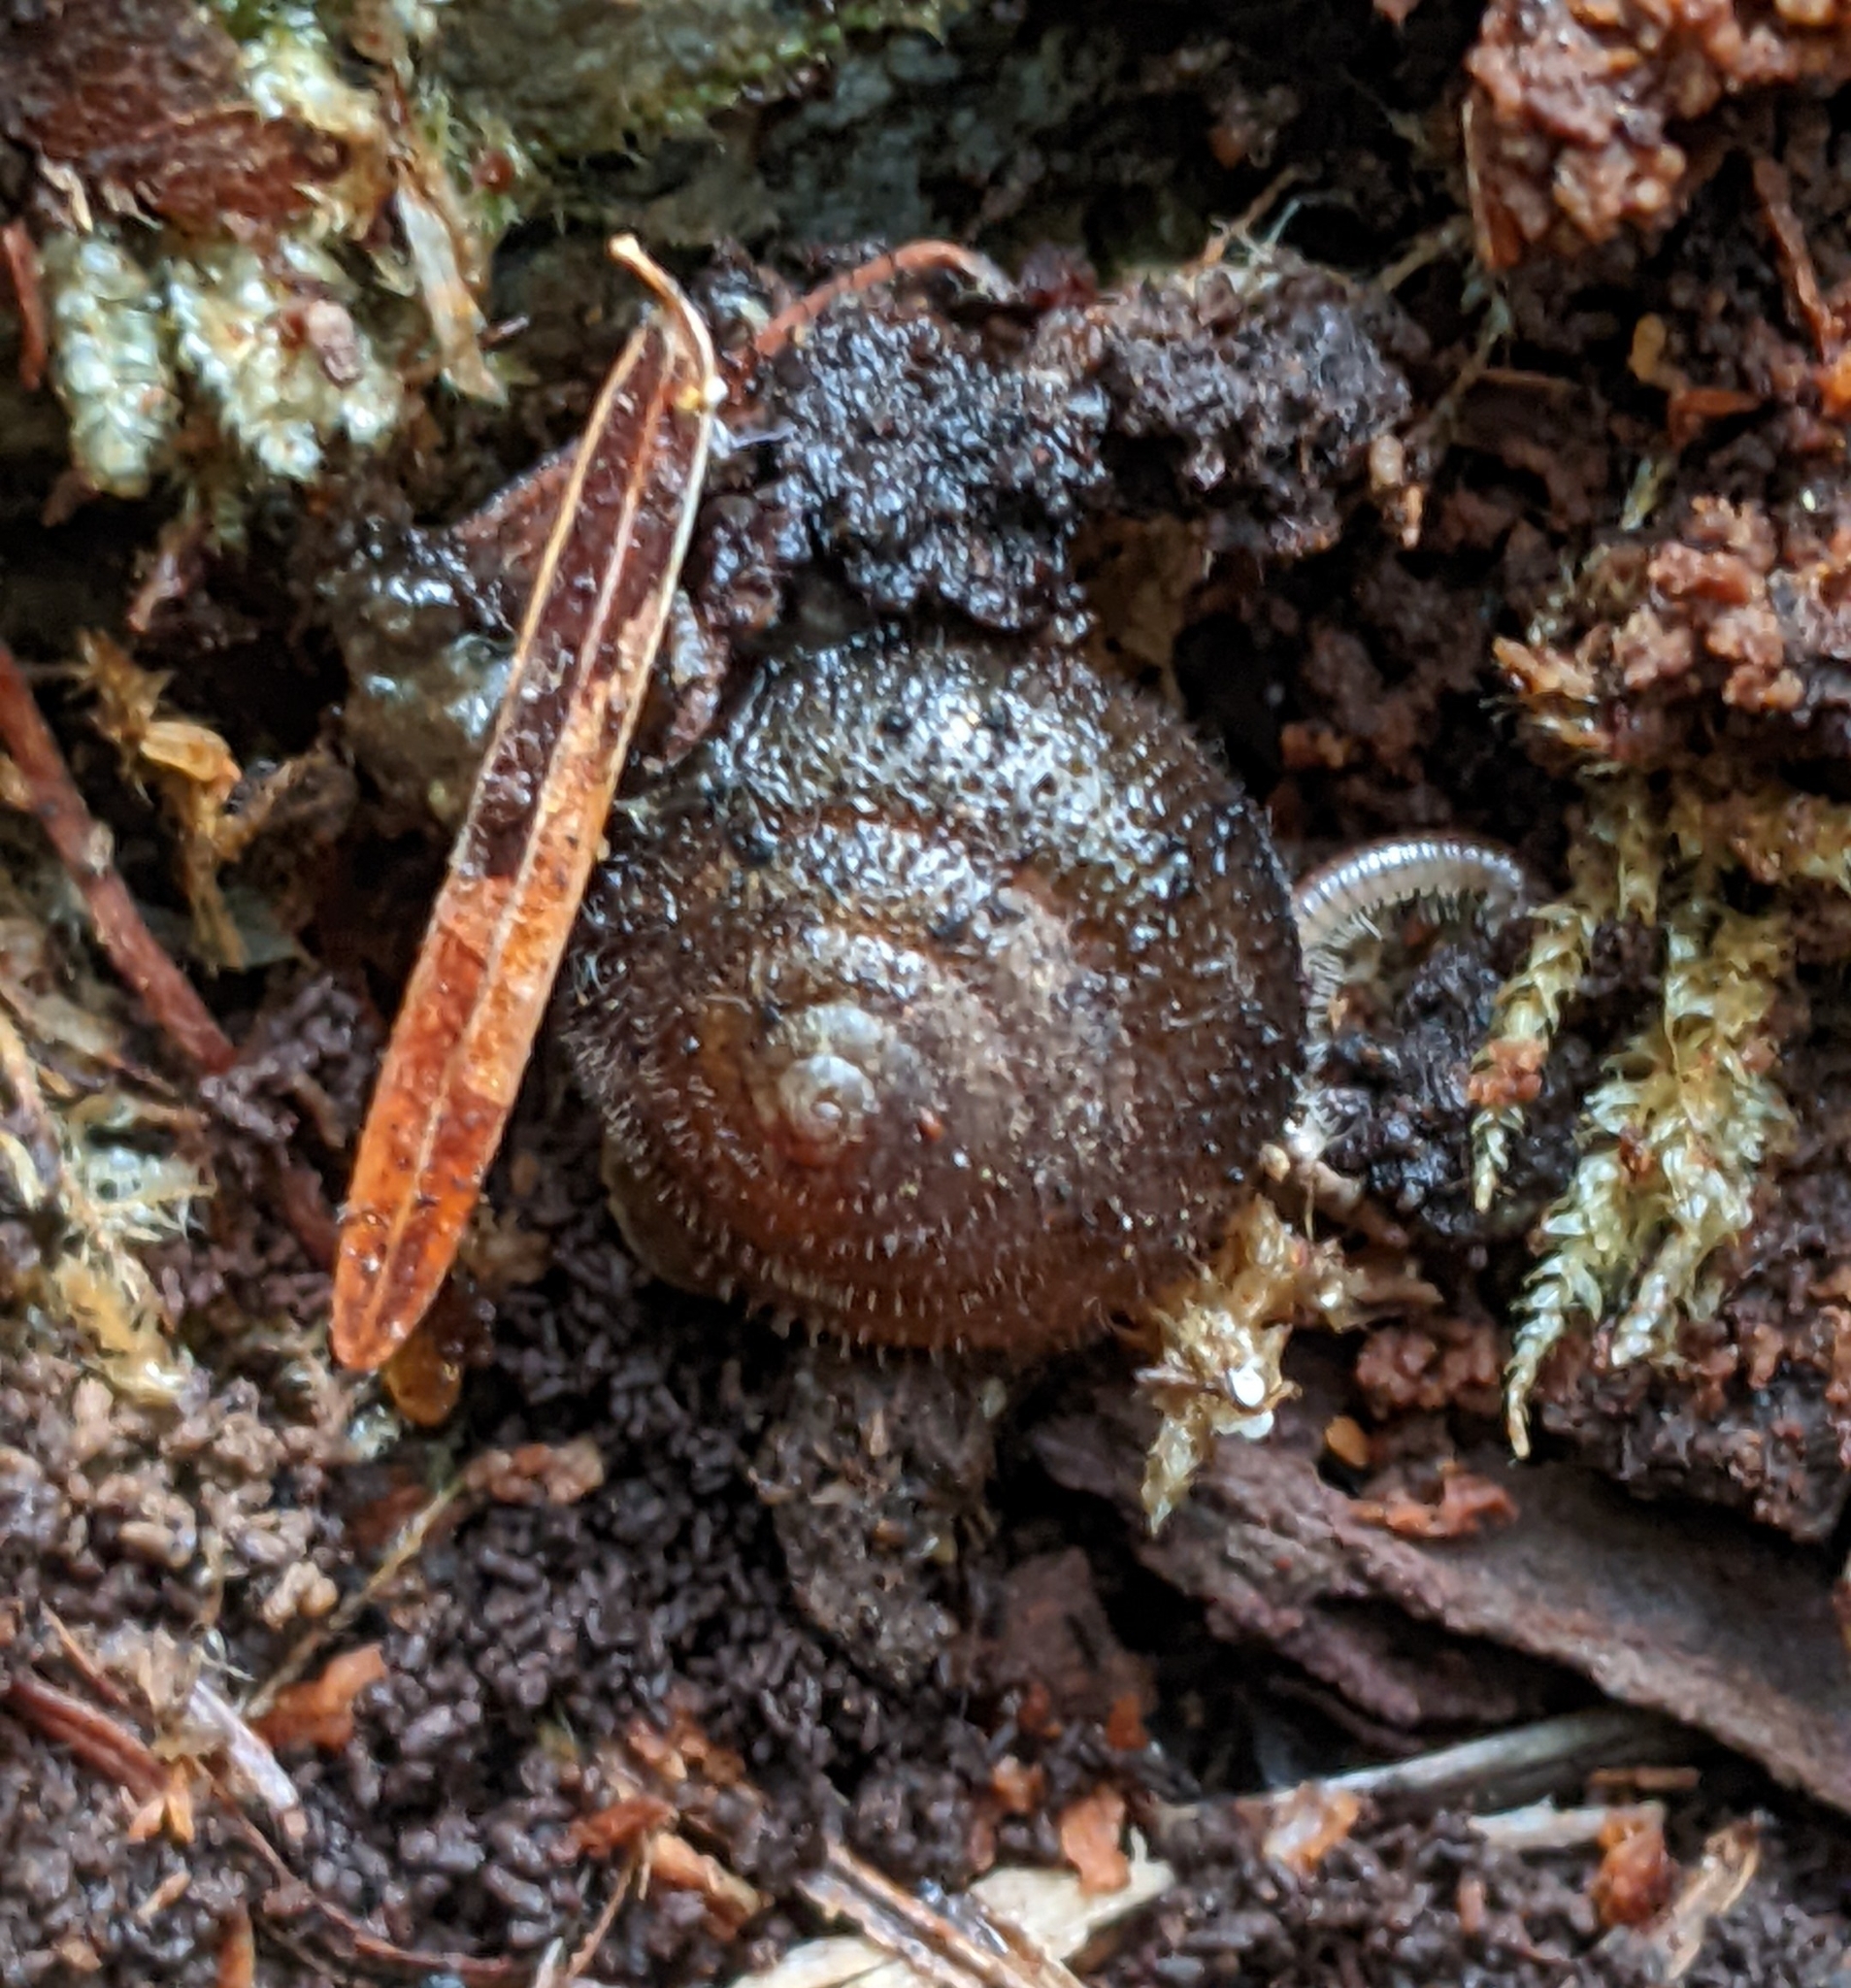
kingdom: Animalia
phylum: Mollusca
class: Gastropoda
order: Stylommatophora
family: Polygyridae
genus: Vespericola
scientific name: Vespericola columbianus
